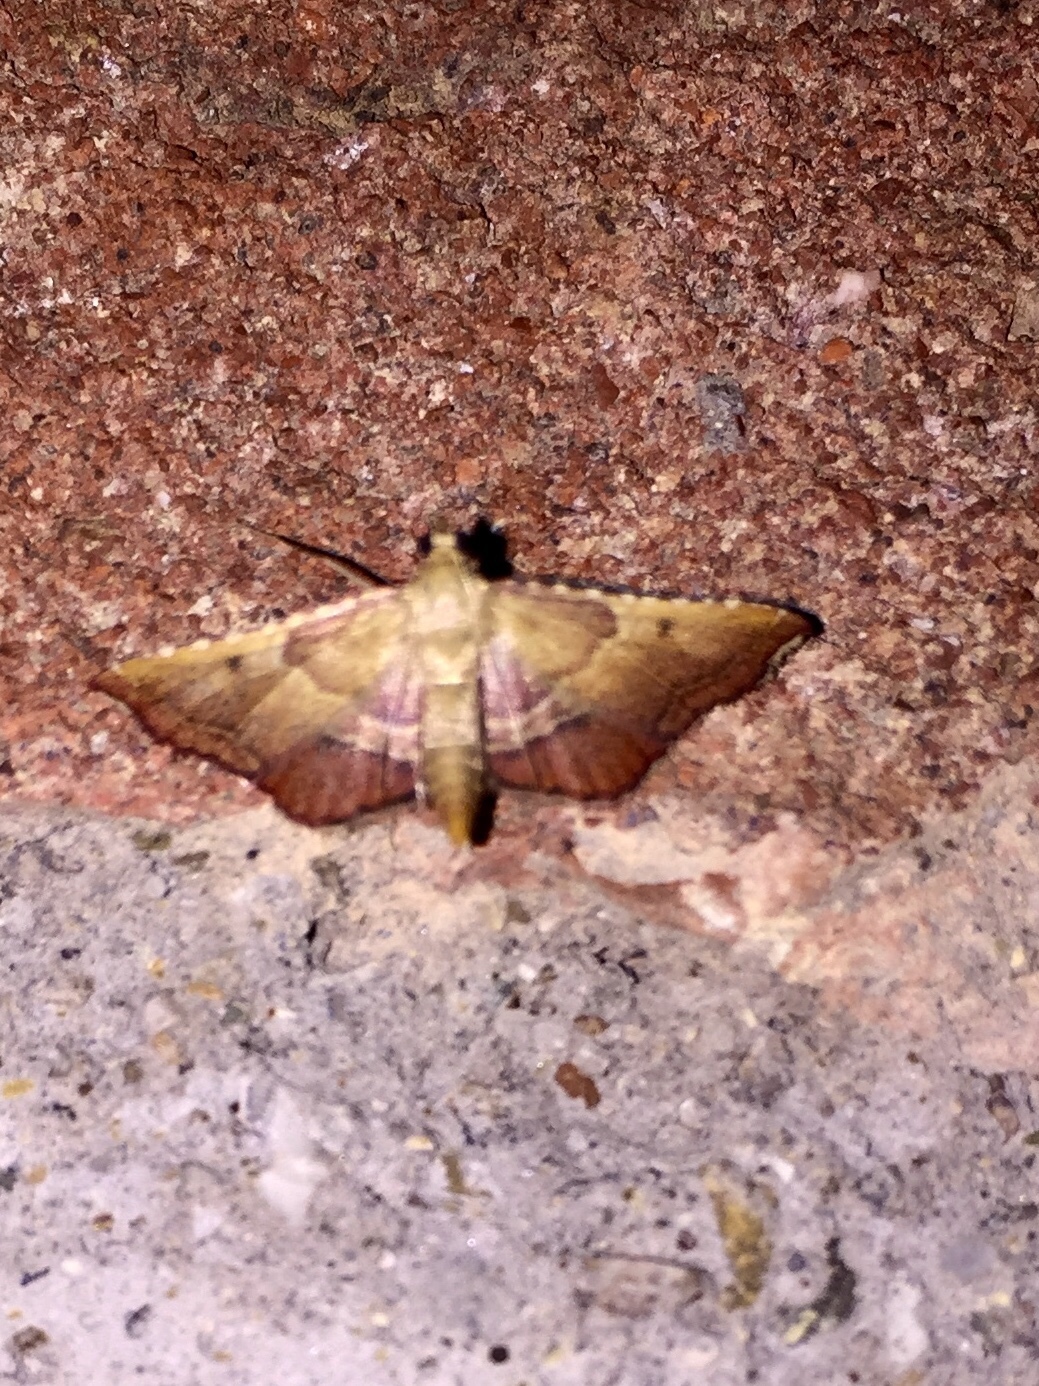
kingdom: Animalia
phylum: Arthropoda
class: Insecta
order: Lepidoptera
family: Pyralidae
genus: Endotricha
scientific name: Endotricha flammealis
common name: Rosy tabby
